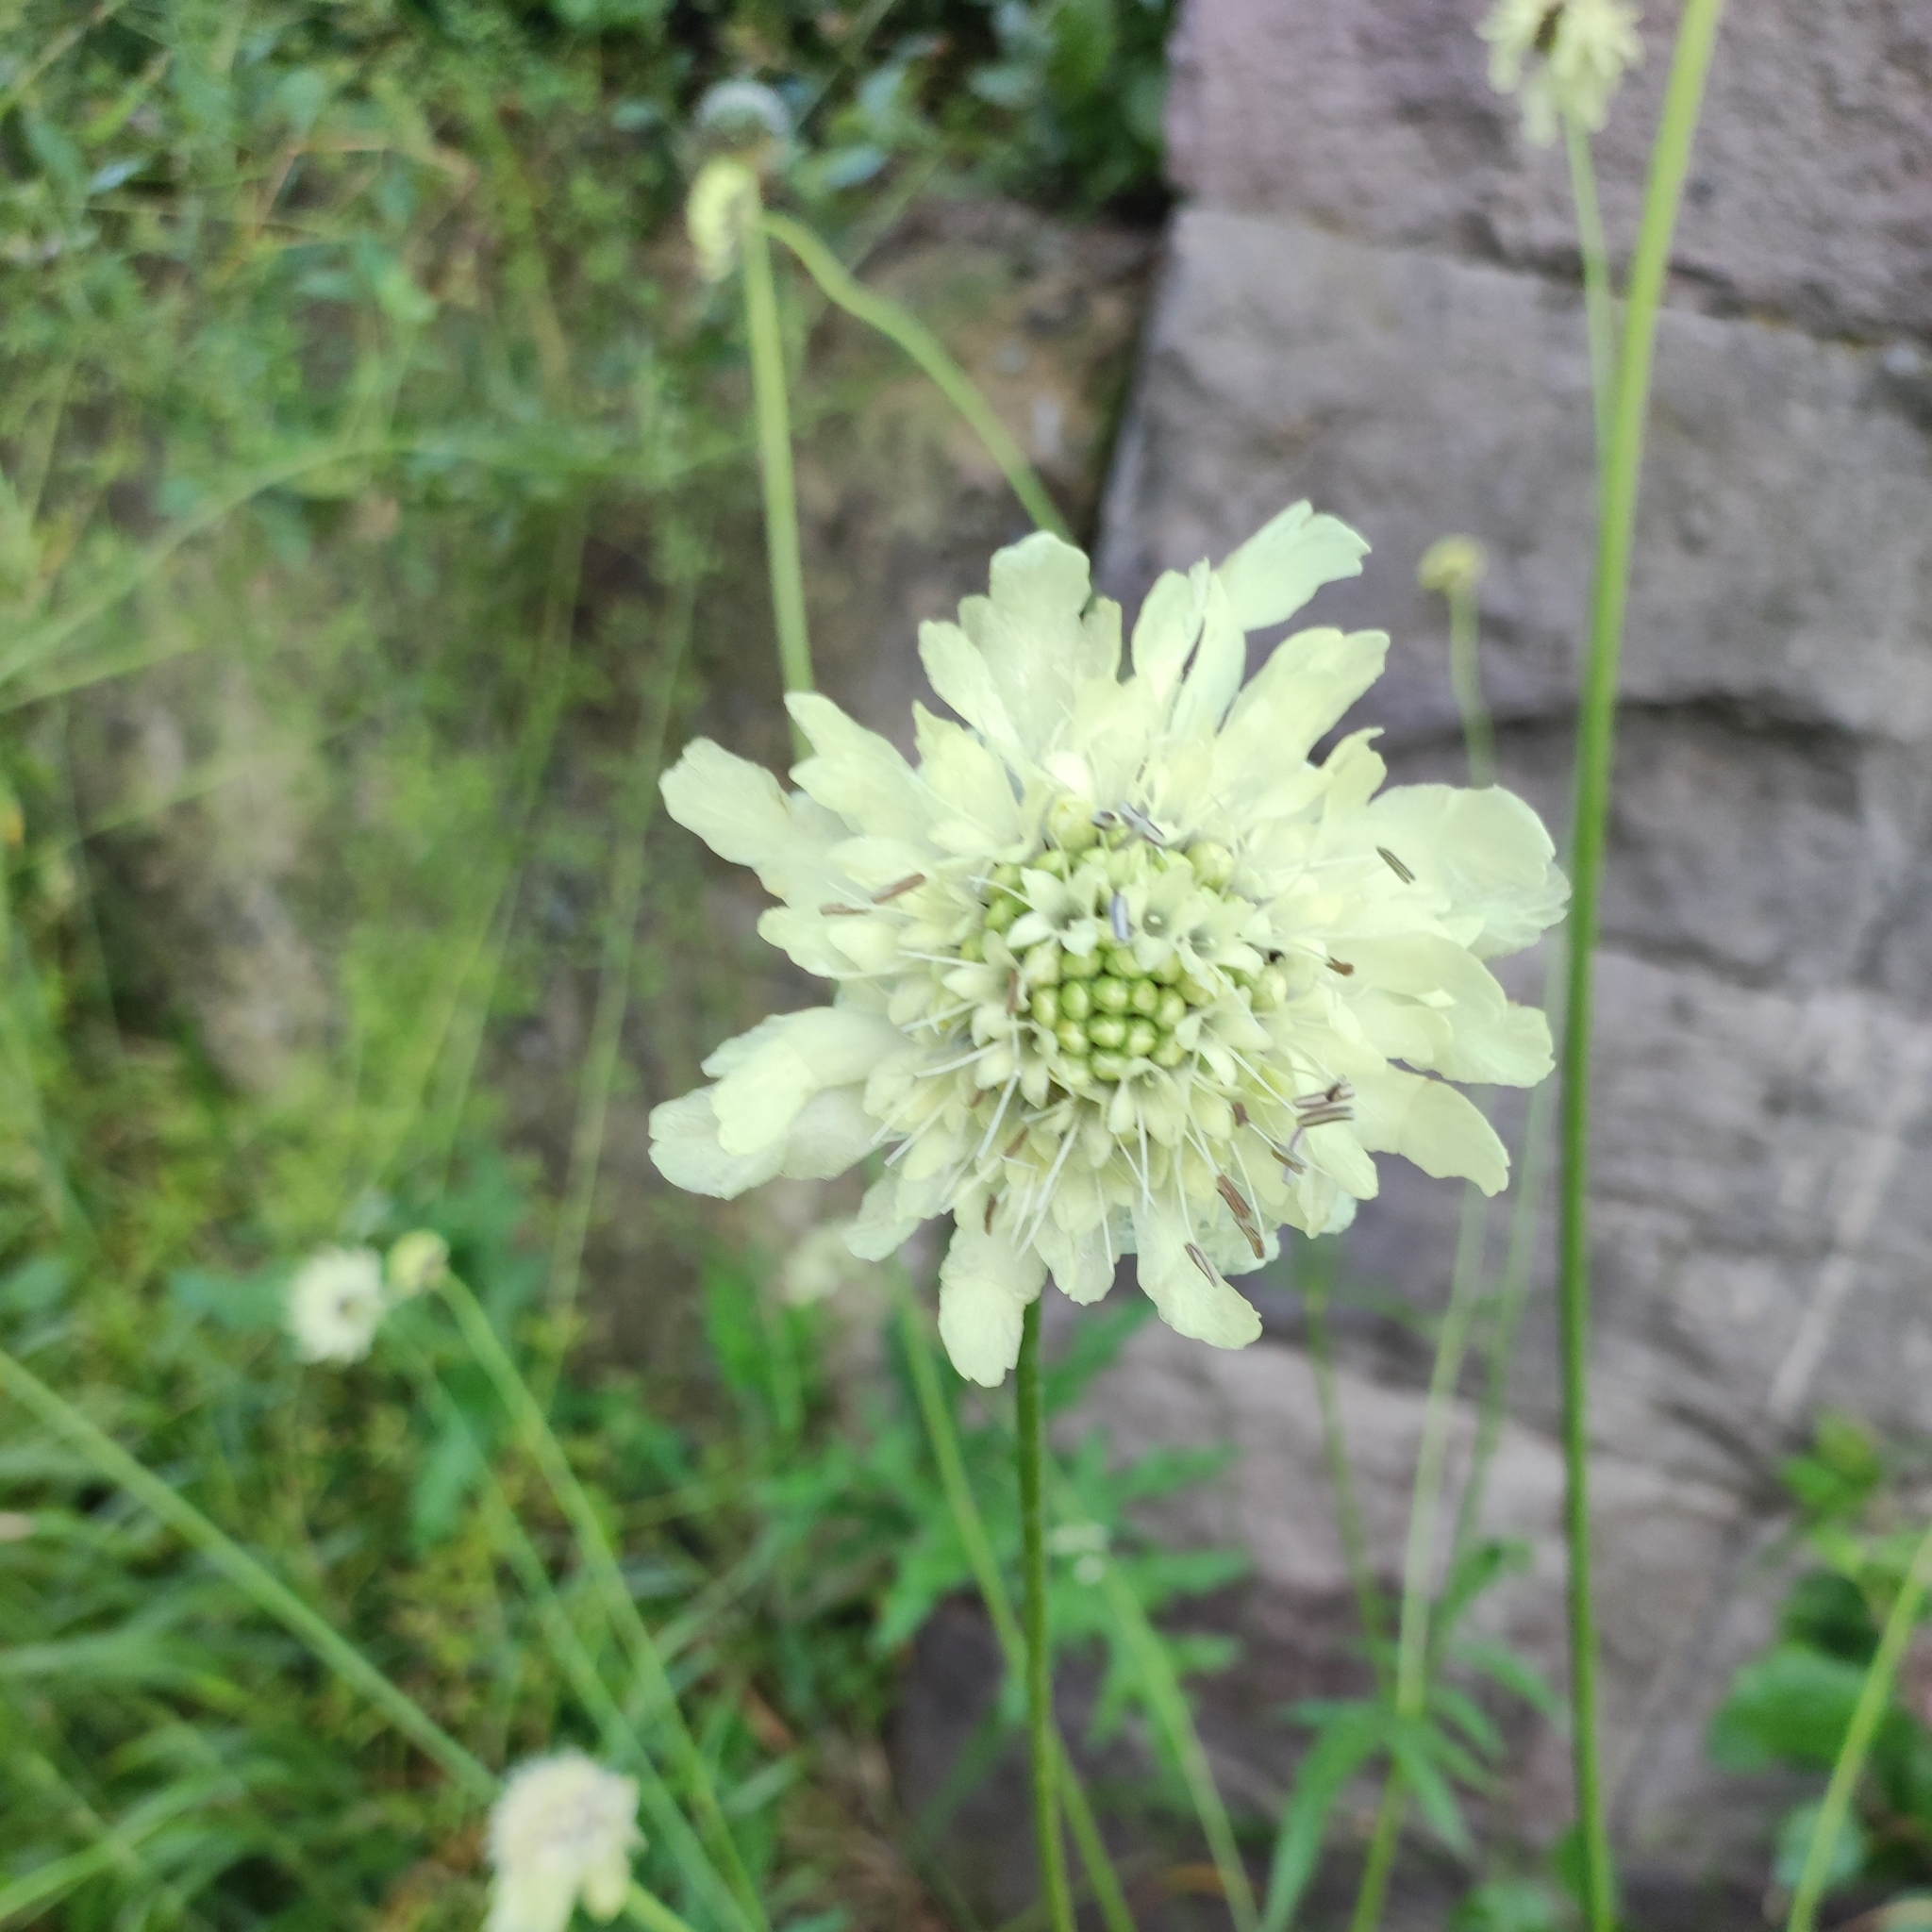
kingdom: Plantae
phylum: Tracheophyta
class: Magnoliopsida
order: Dipsacales
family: Caprifoliaceae
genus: Cephalaria
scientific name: Cephalaria gigantea
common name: Tatarian cephalaria
